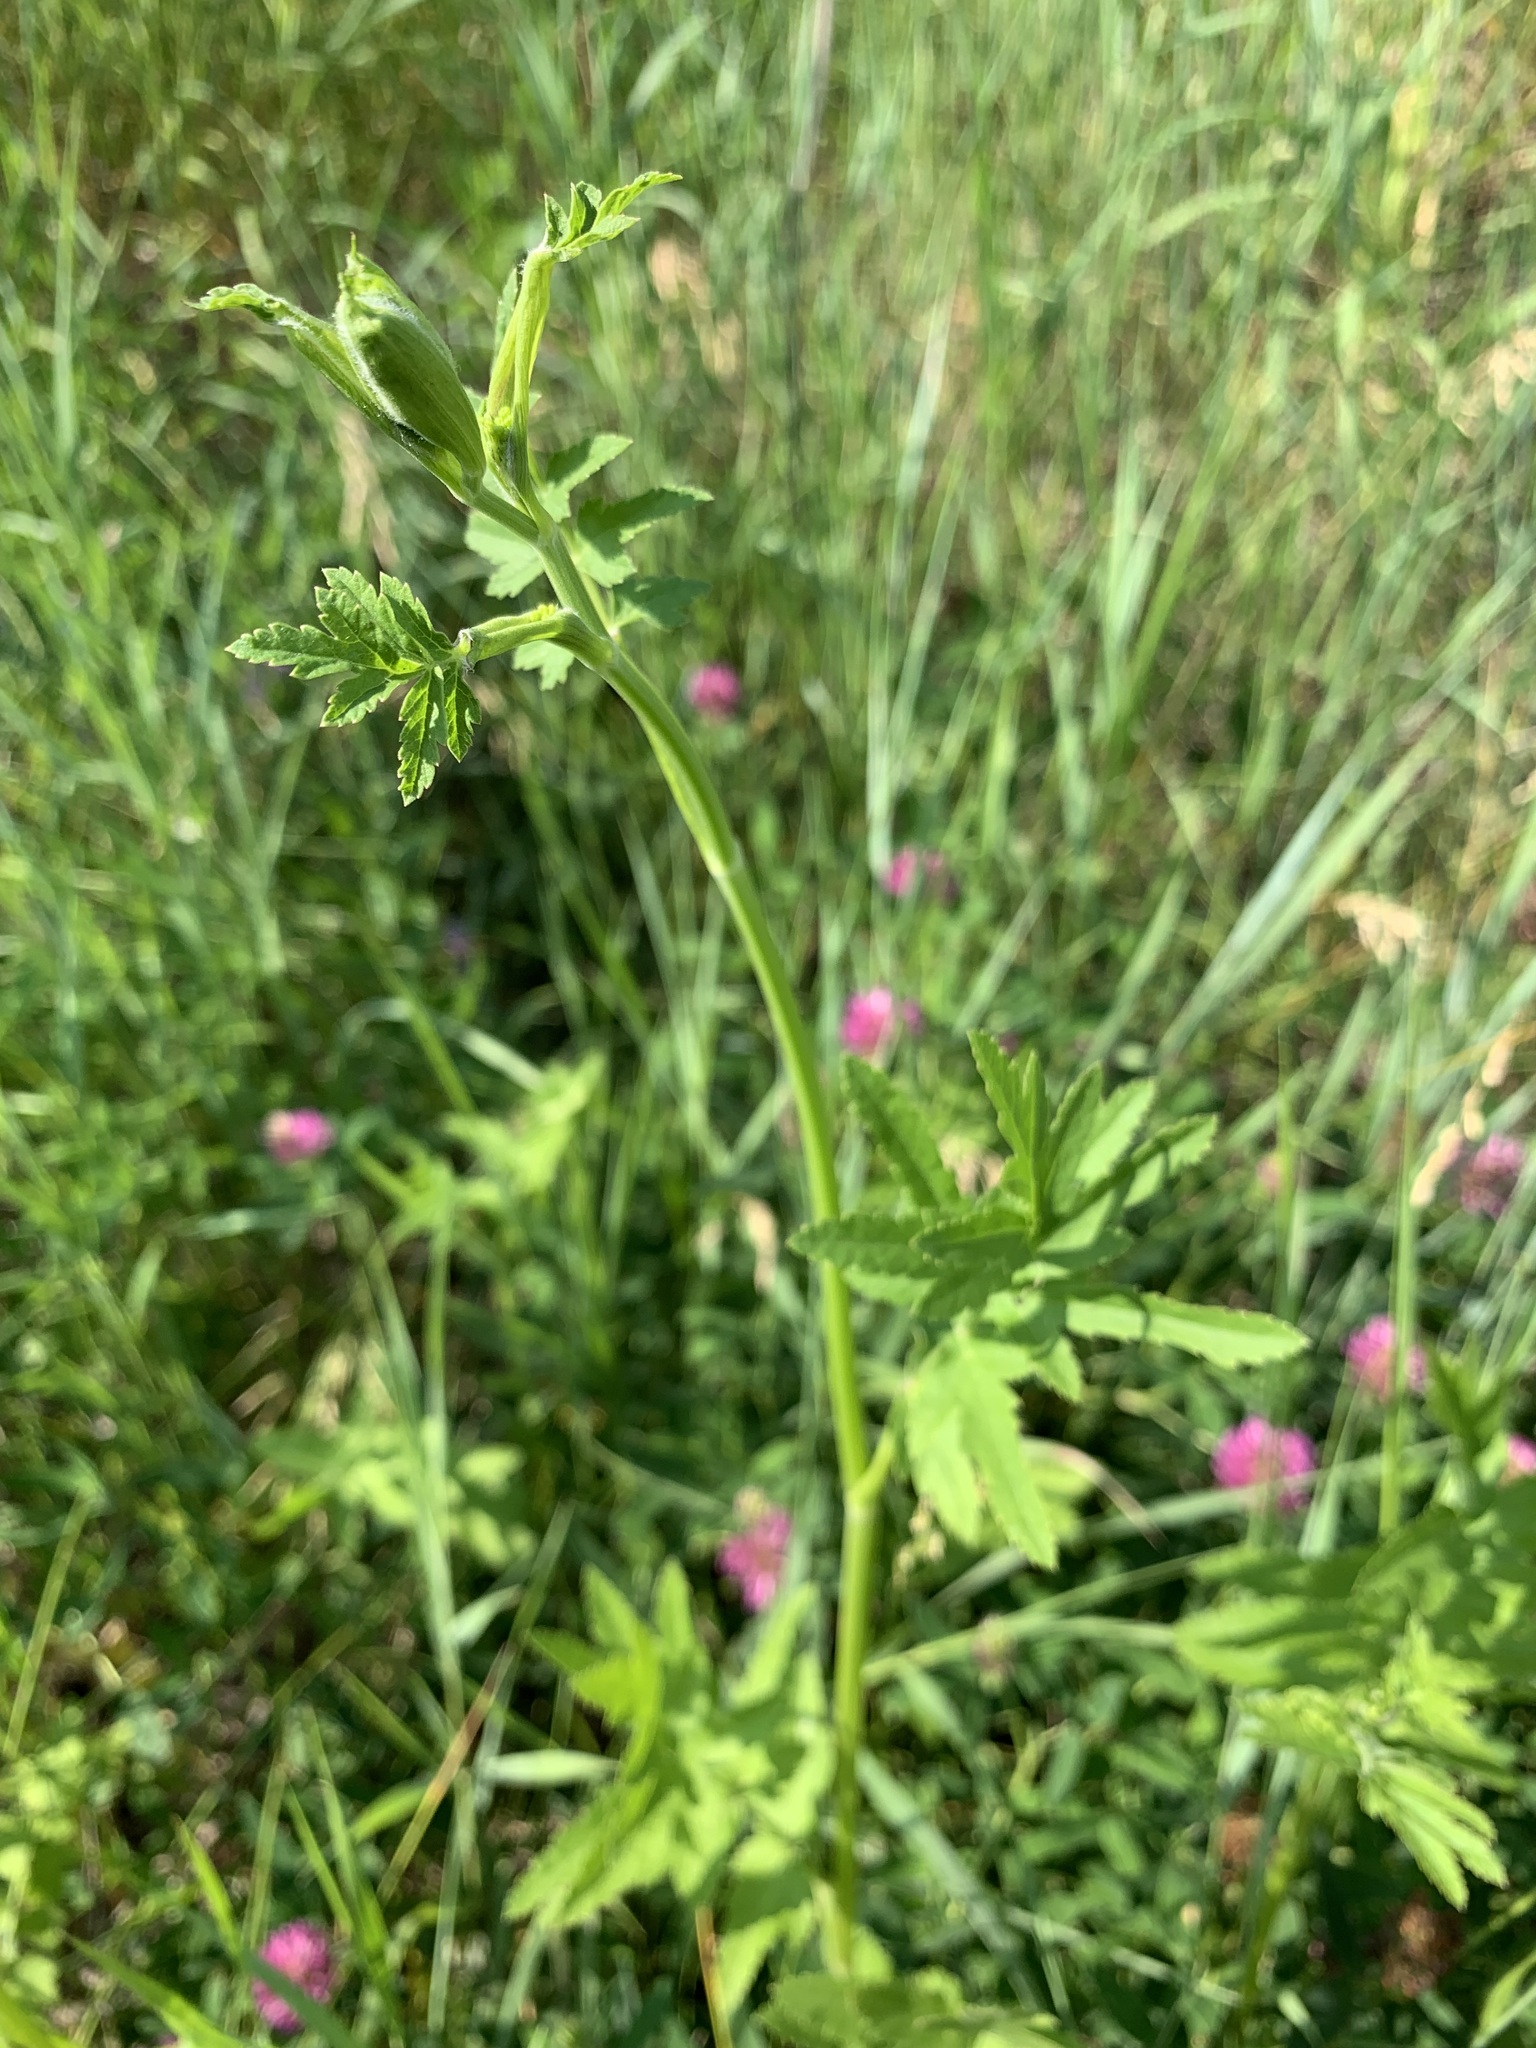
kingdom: Plantae
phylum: Tracheophyta
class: Magnoliopsida
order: Apiales
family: Apiaceae
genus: Pastinaca
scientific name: Pastinaca sativa
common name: Wild parsnip
